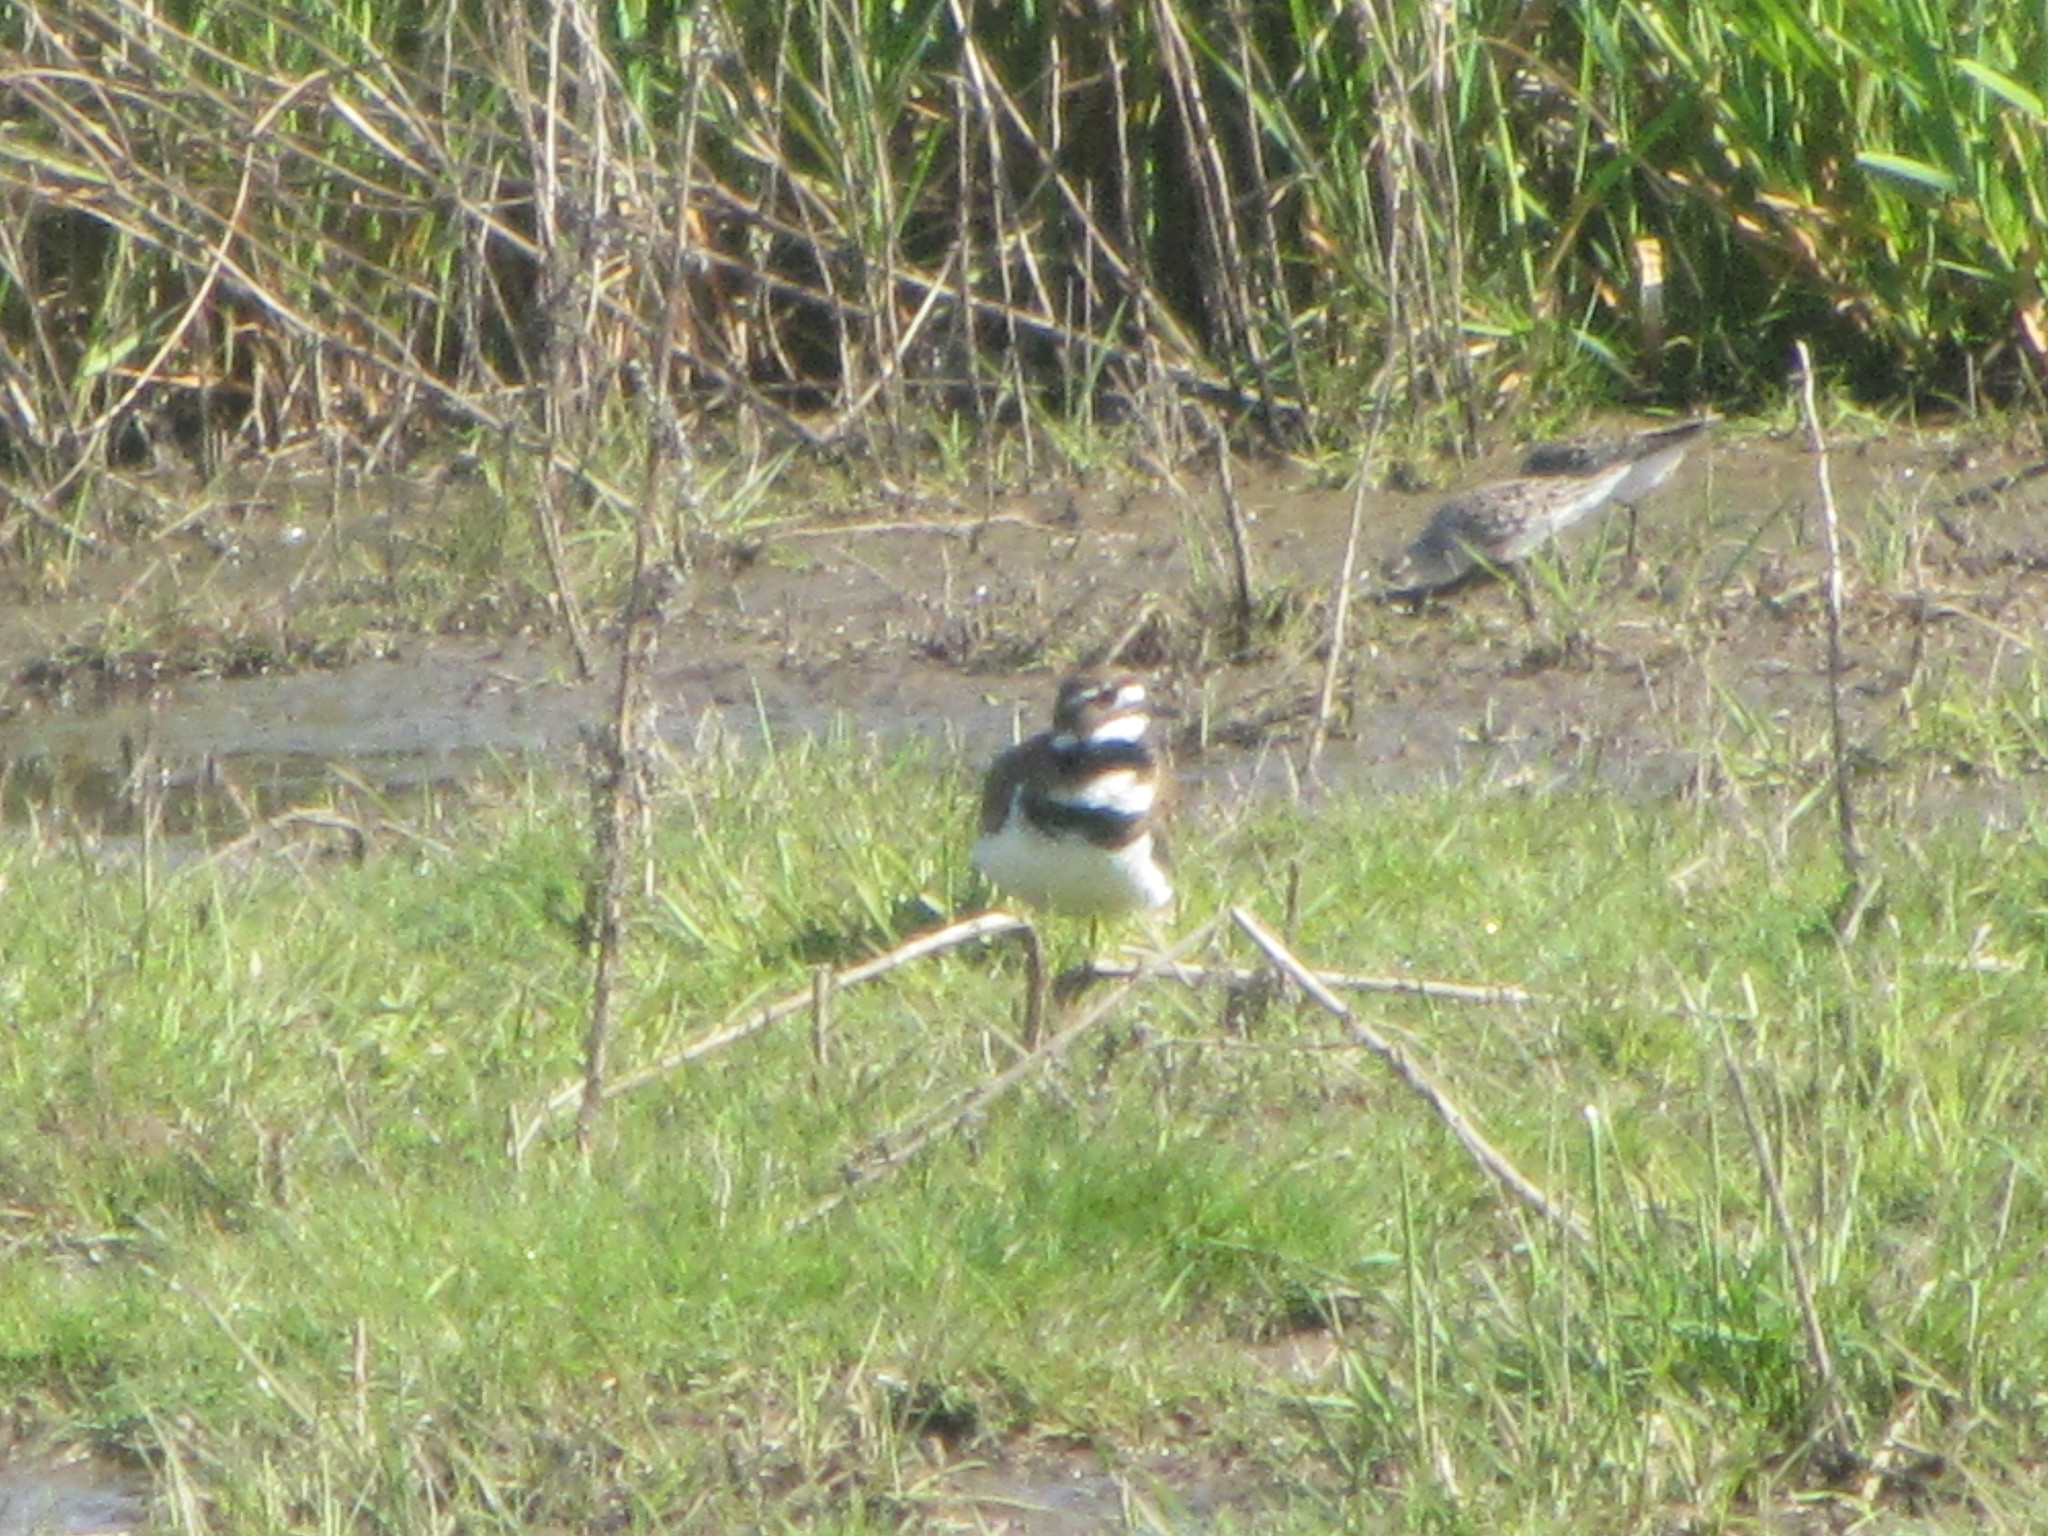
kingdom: Animalia
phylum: Chordata
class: Aves
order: Charadriiformes
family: Charadriidae
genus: Charadrius
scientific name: Charadrius vociferus
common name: Killdeer
